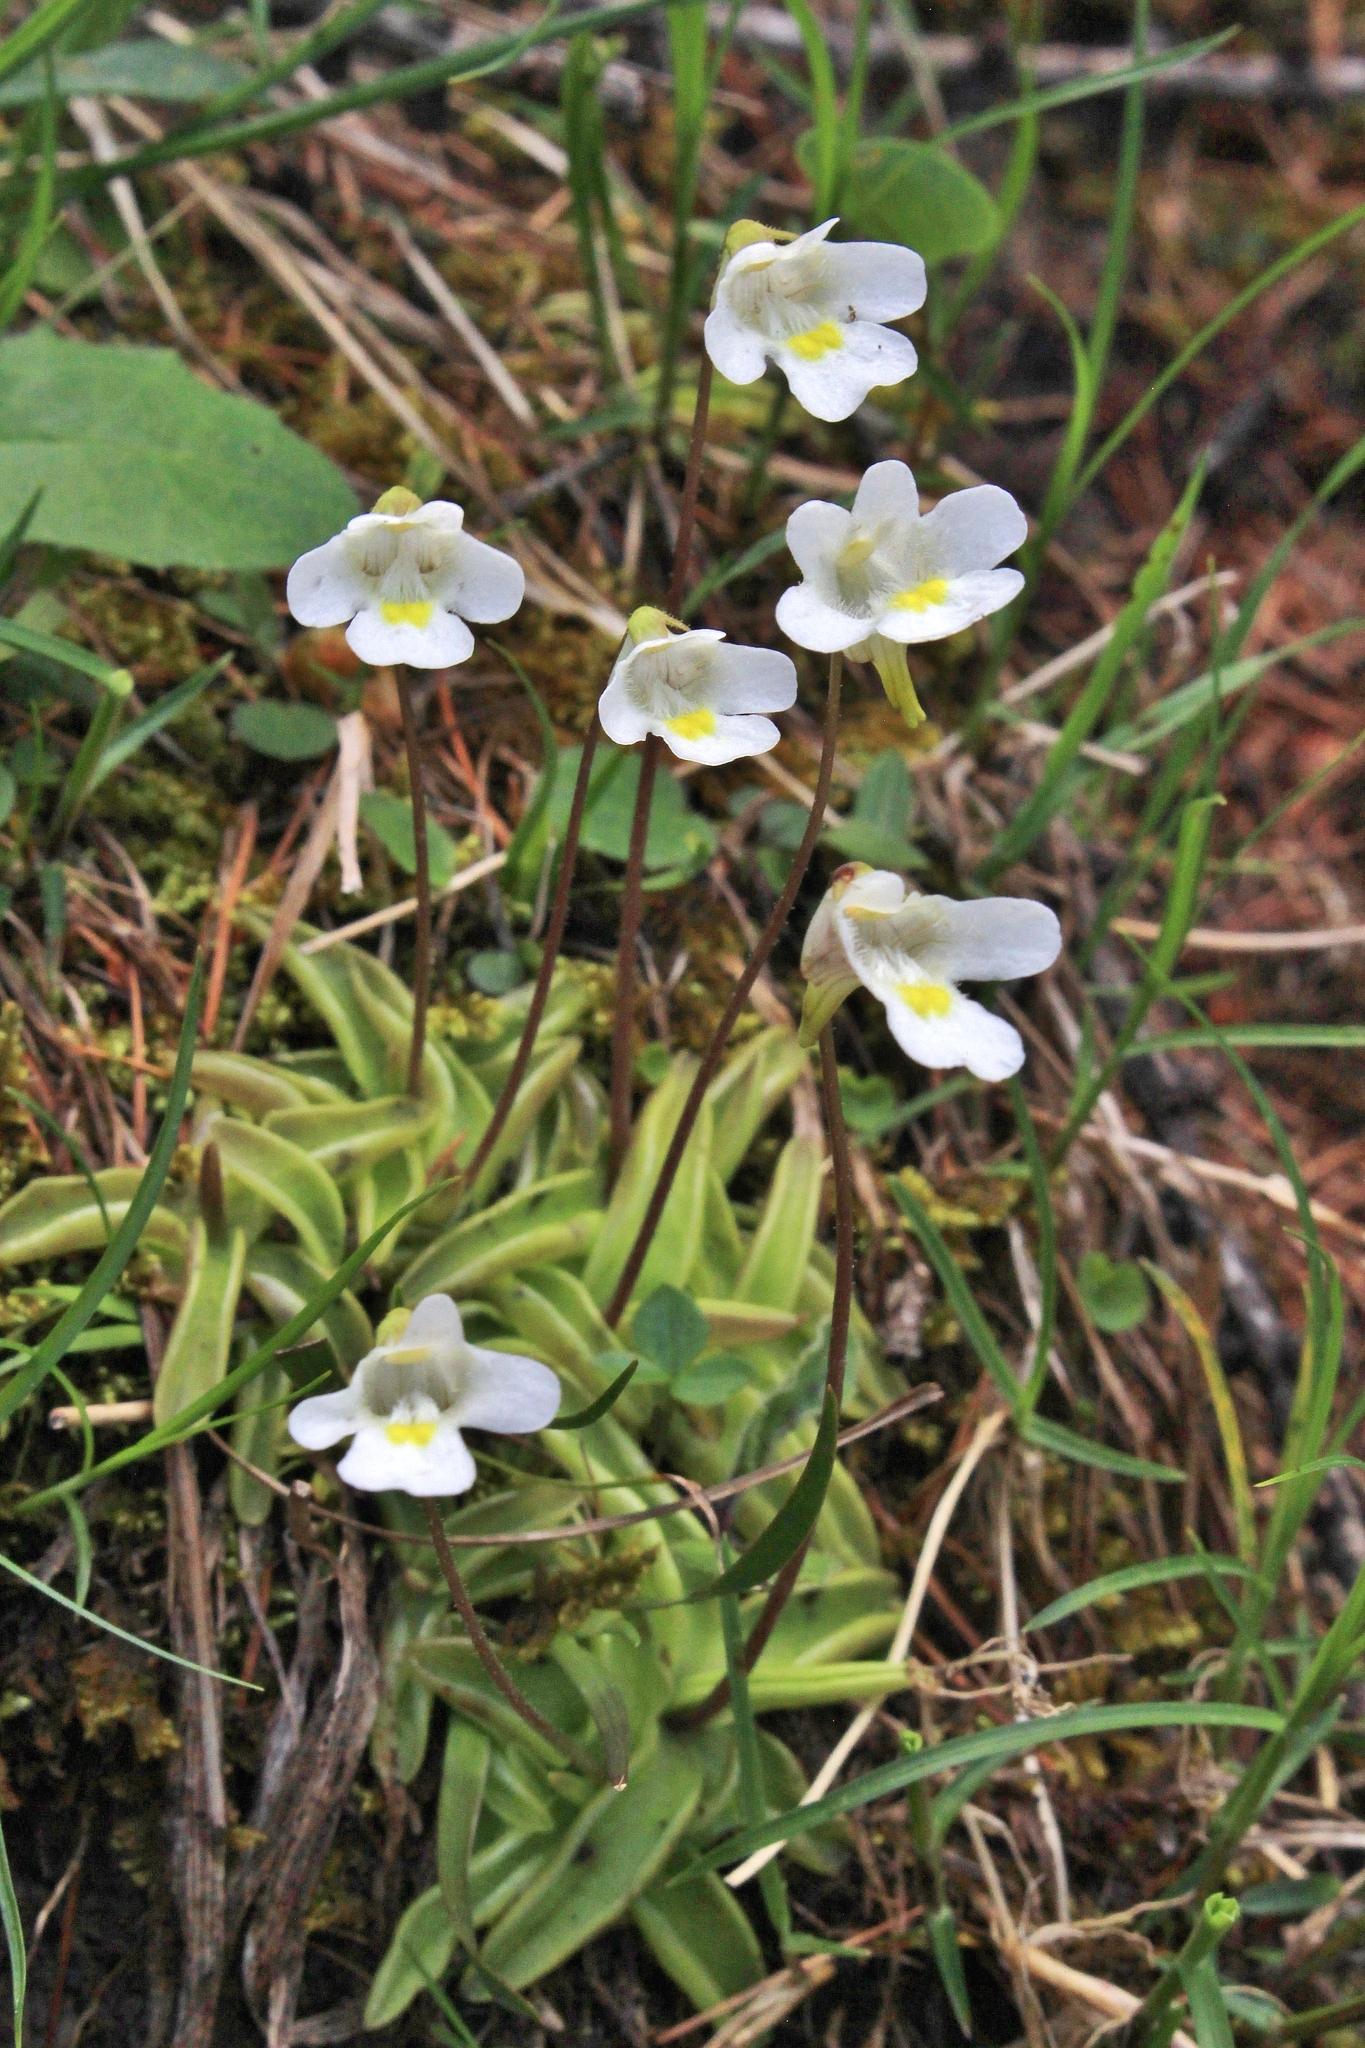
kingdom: Plantae
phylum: Tracheophyta
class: Magnoliopsida
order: Lamiales
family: Lentibulariaceae
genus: Pinguicula
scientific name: Pinguicula alpina
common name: Alpine butterwort
